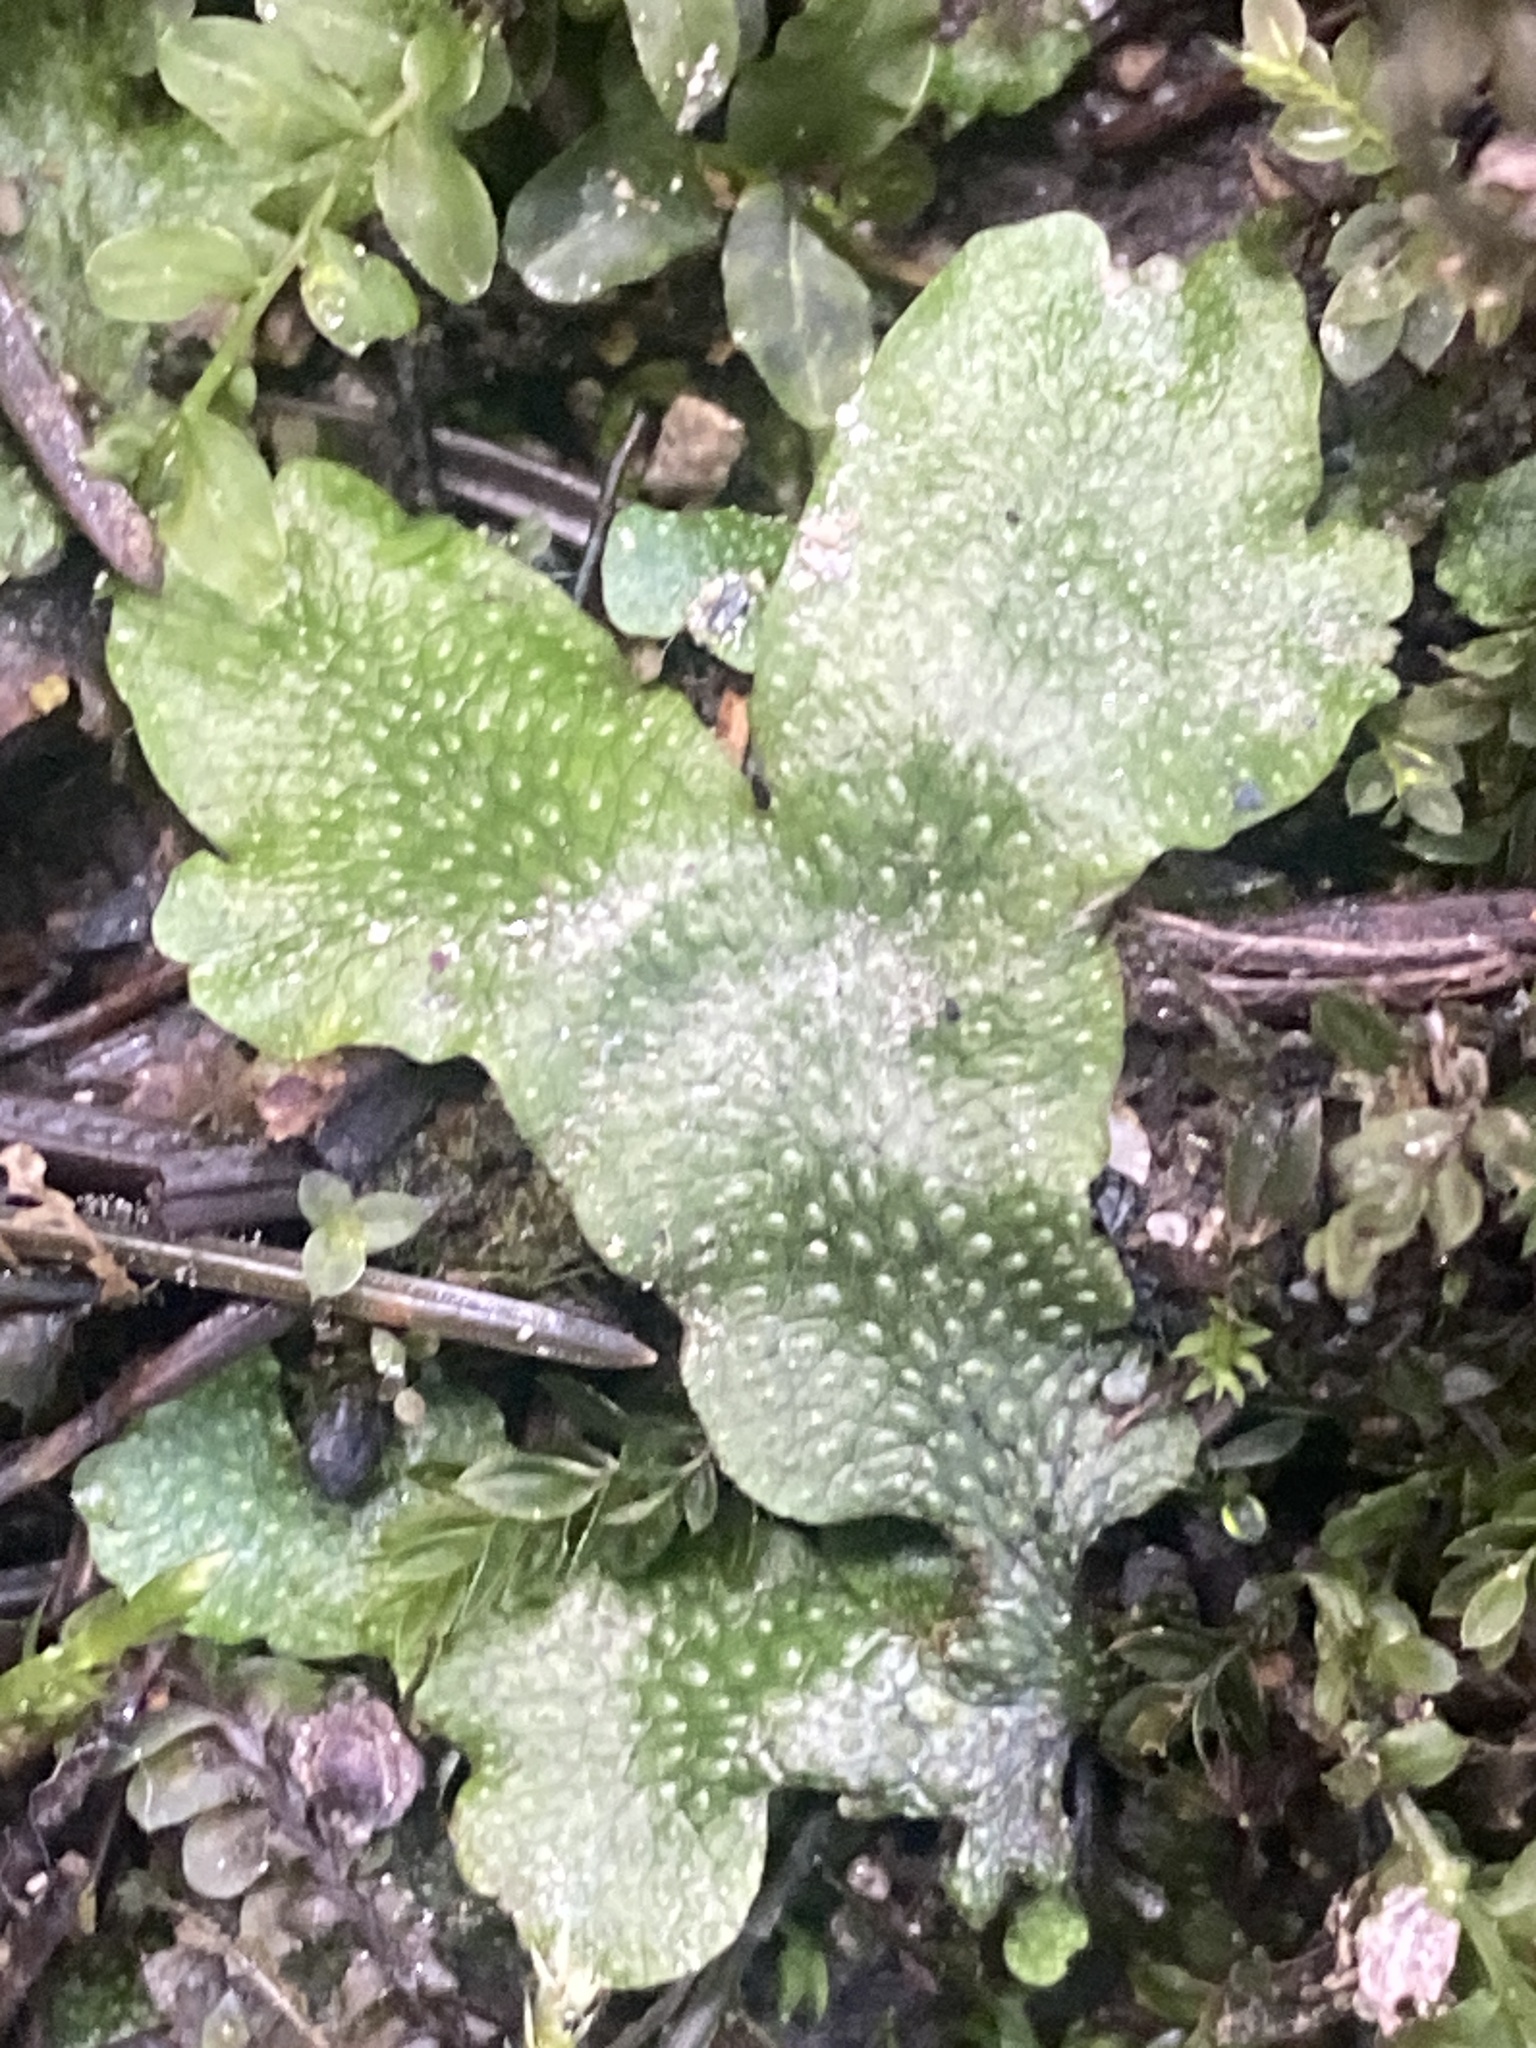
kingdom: Plantae
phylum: Marchantiophyta
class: Marchantiopsida
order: Marchantiales
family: Conocephalaceae
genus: Conocephalum
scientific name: Conocephalum salebrosum
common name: Cat-tongue liverwort
